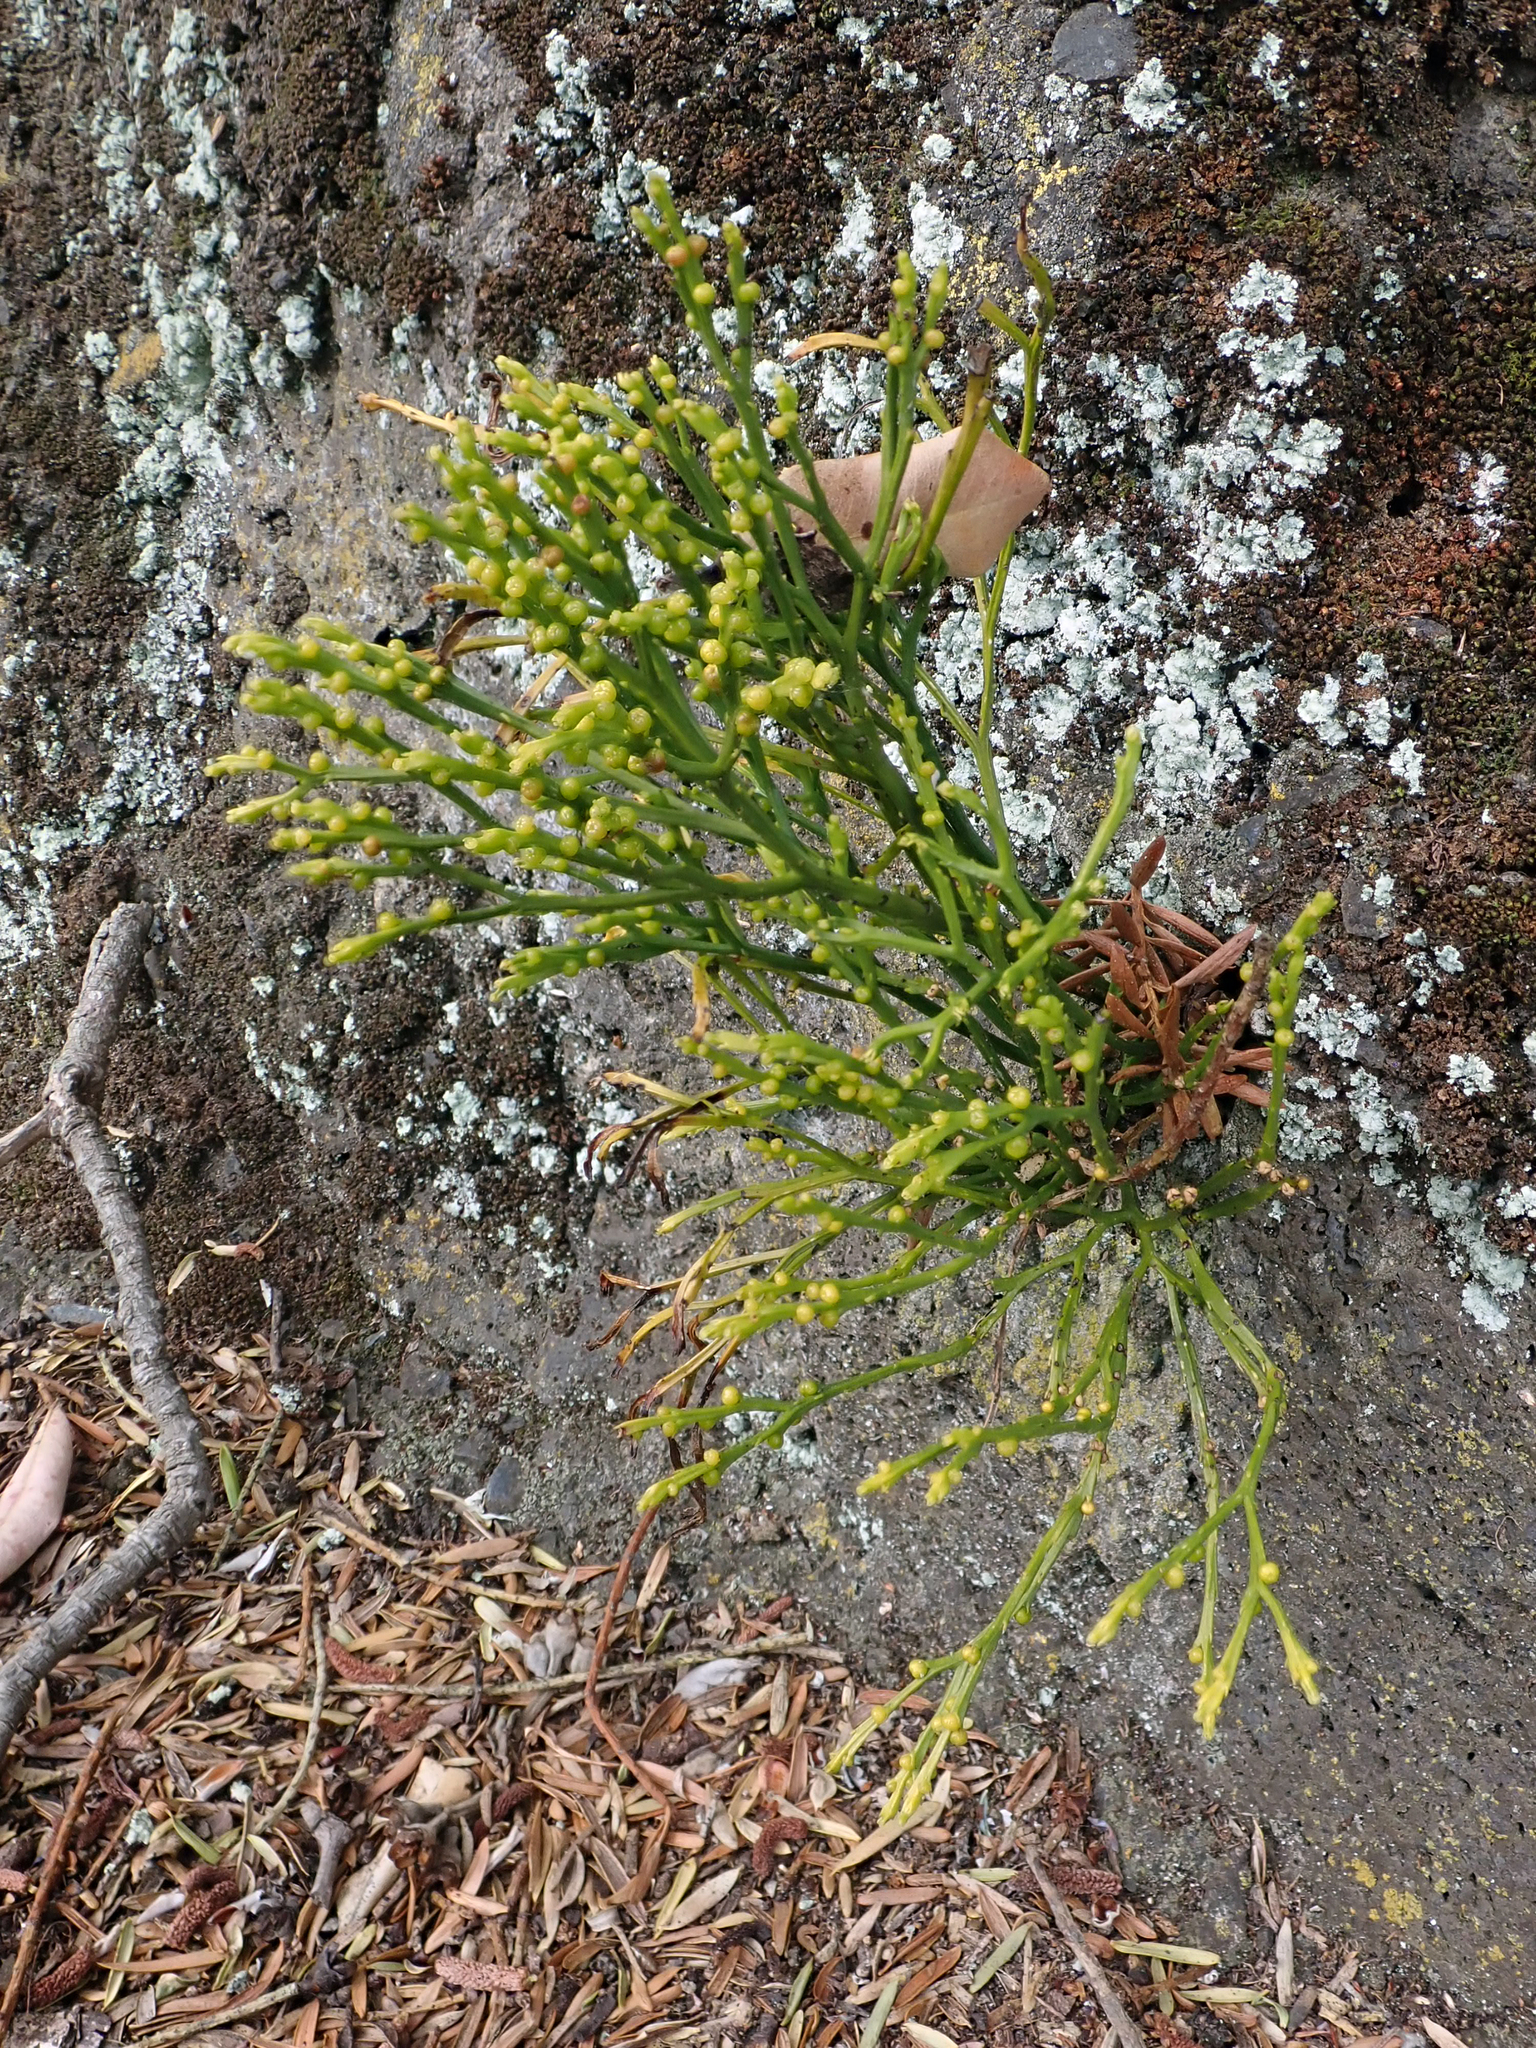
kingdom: Plantae
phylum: Tracheophyta
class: Polypodiopsida
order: Psilotales
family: Psilotaceae
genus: Psilotum
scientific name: Psilotum nudum
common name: Skeleton fork fern
